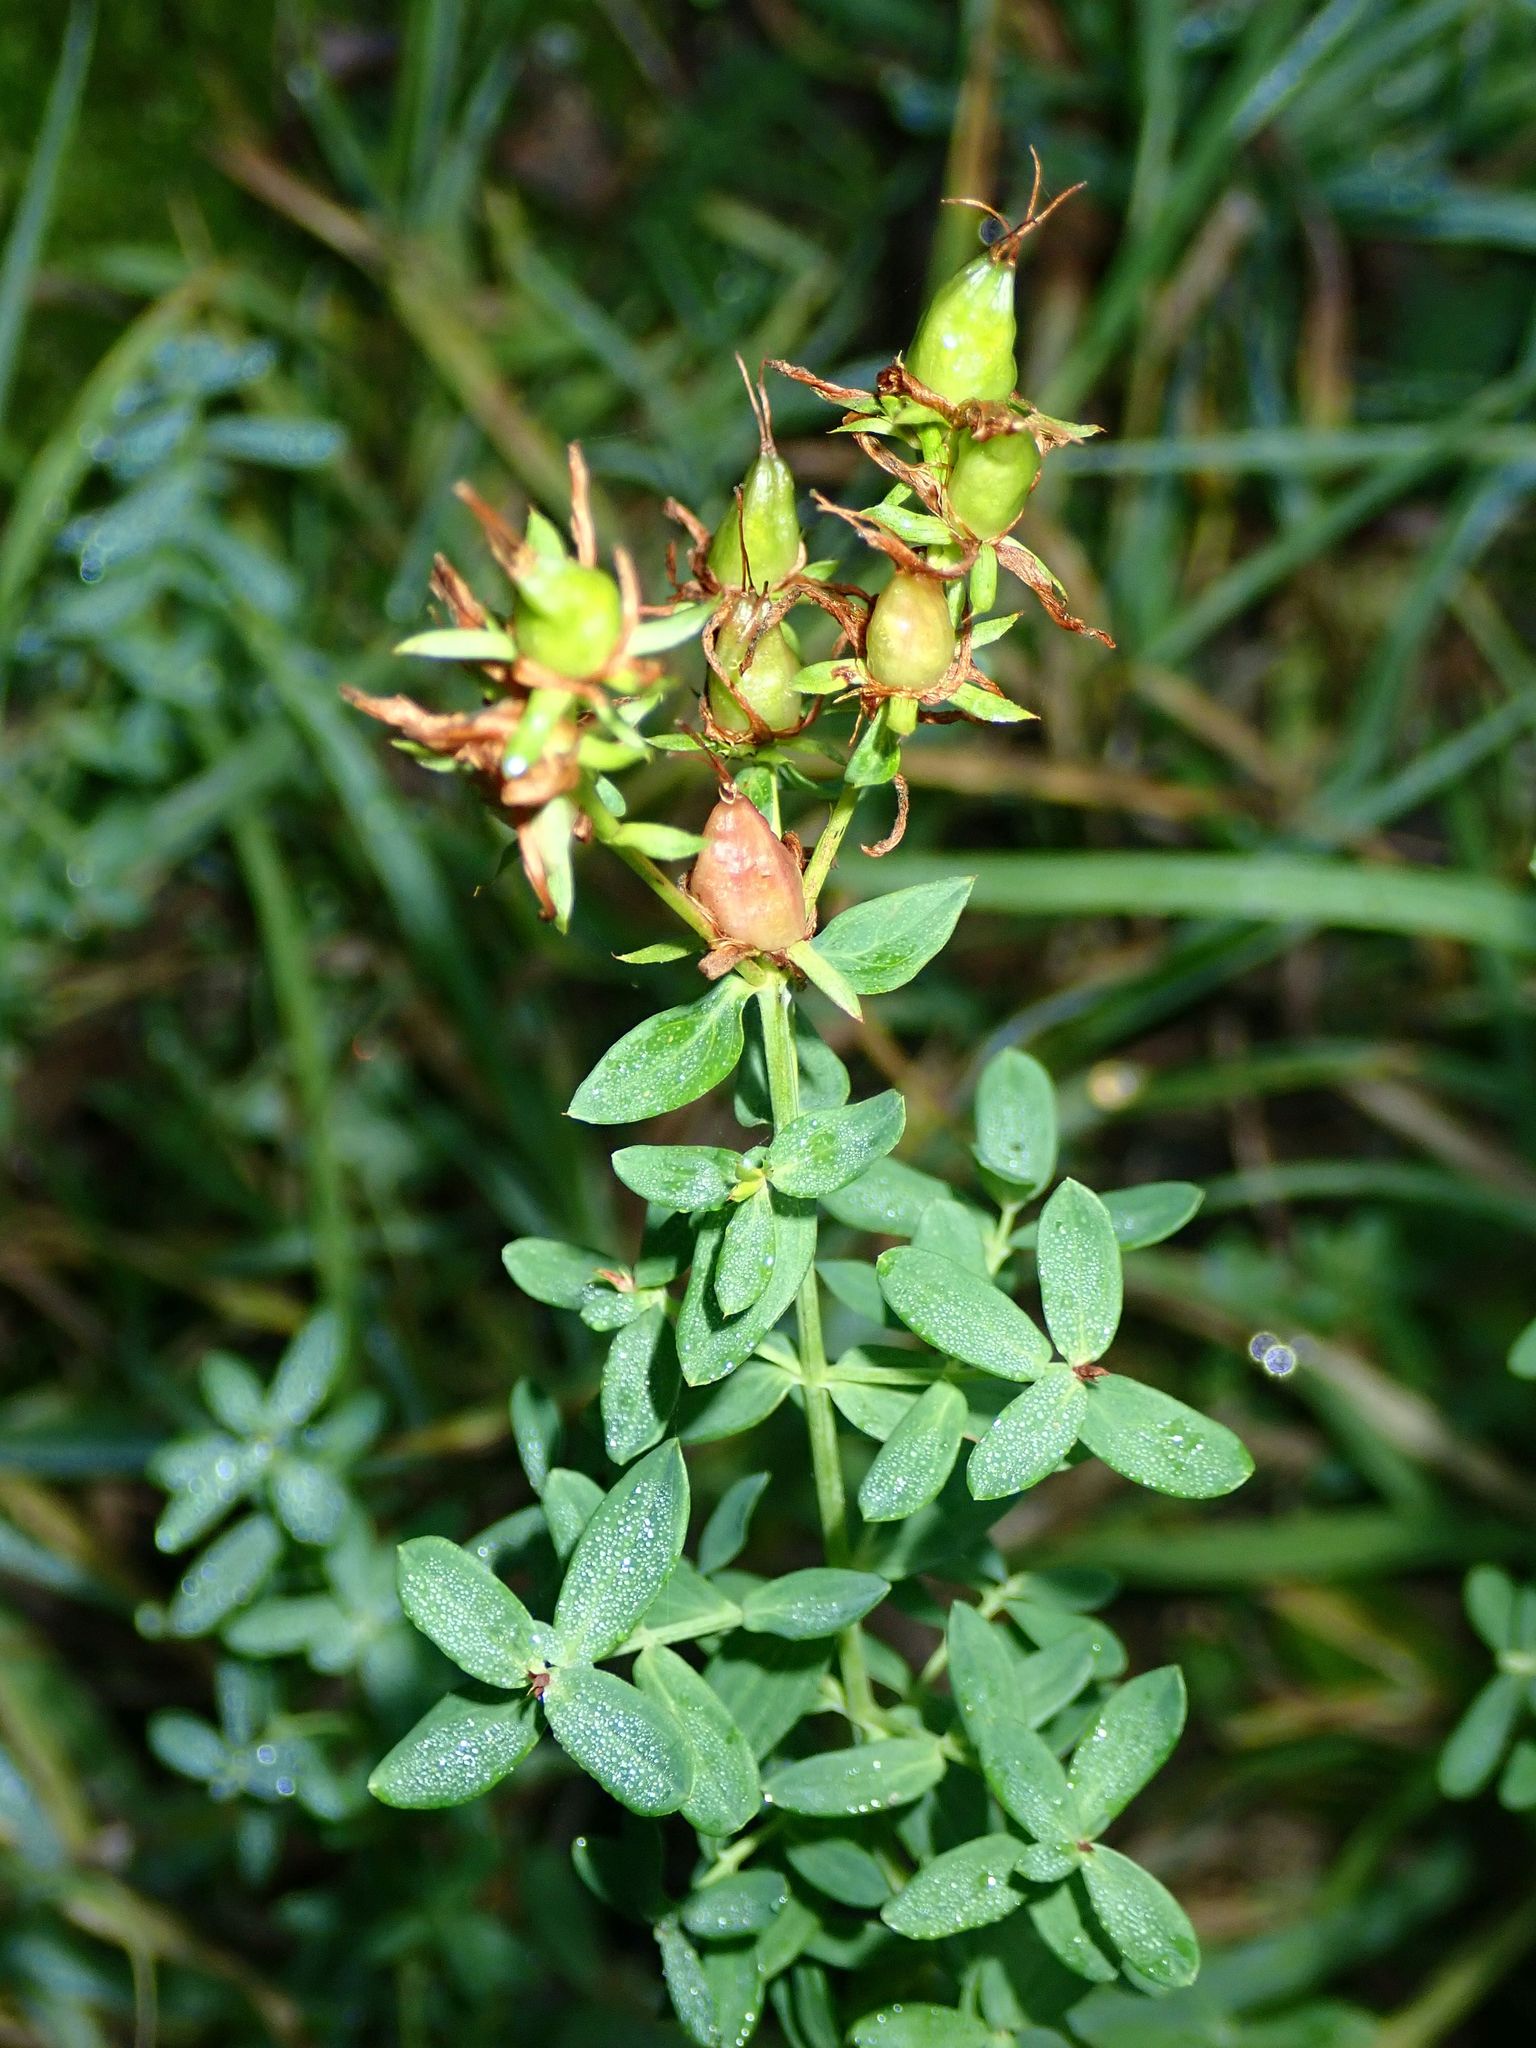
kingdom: Plantae
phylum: Tracheophyta
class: Magnoliopsida
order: Malpighiales
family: Hypericaceae
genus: Hypericum
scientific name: Hypericum perforatum
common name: Common st. johnswort
